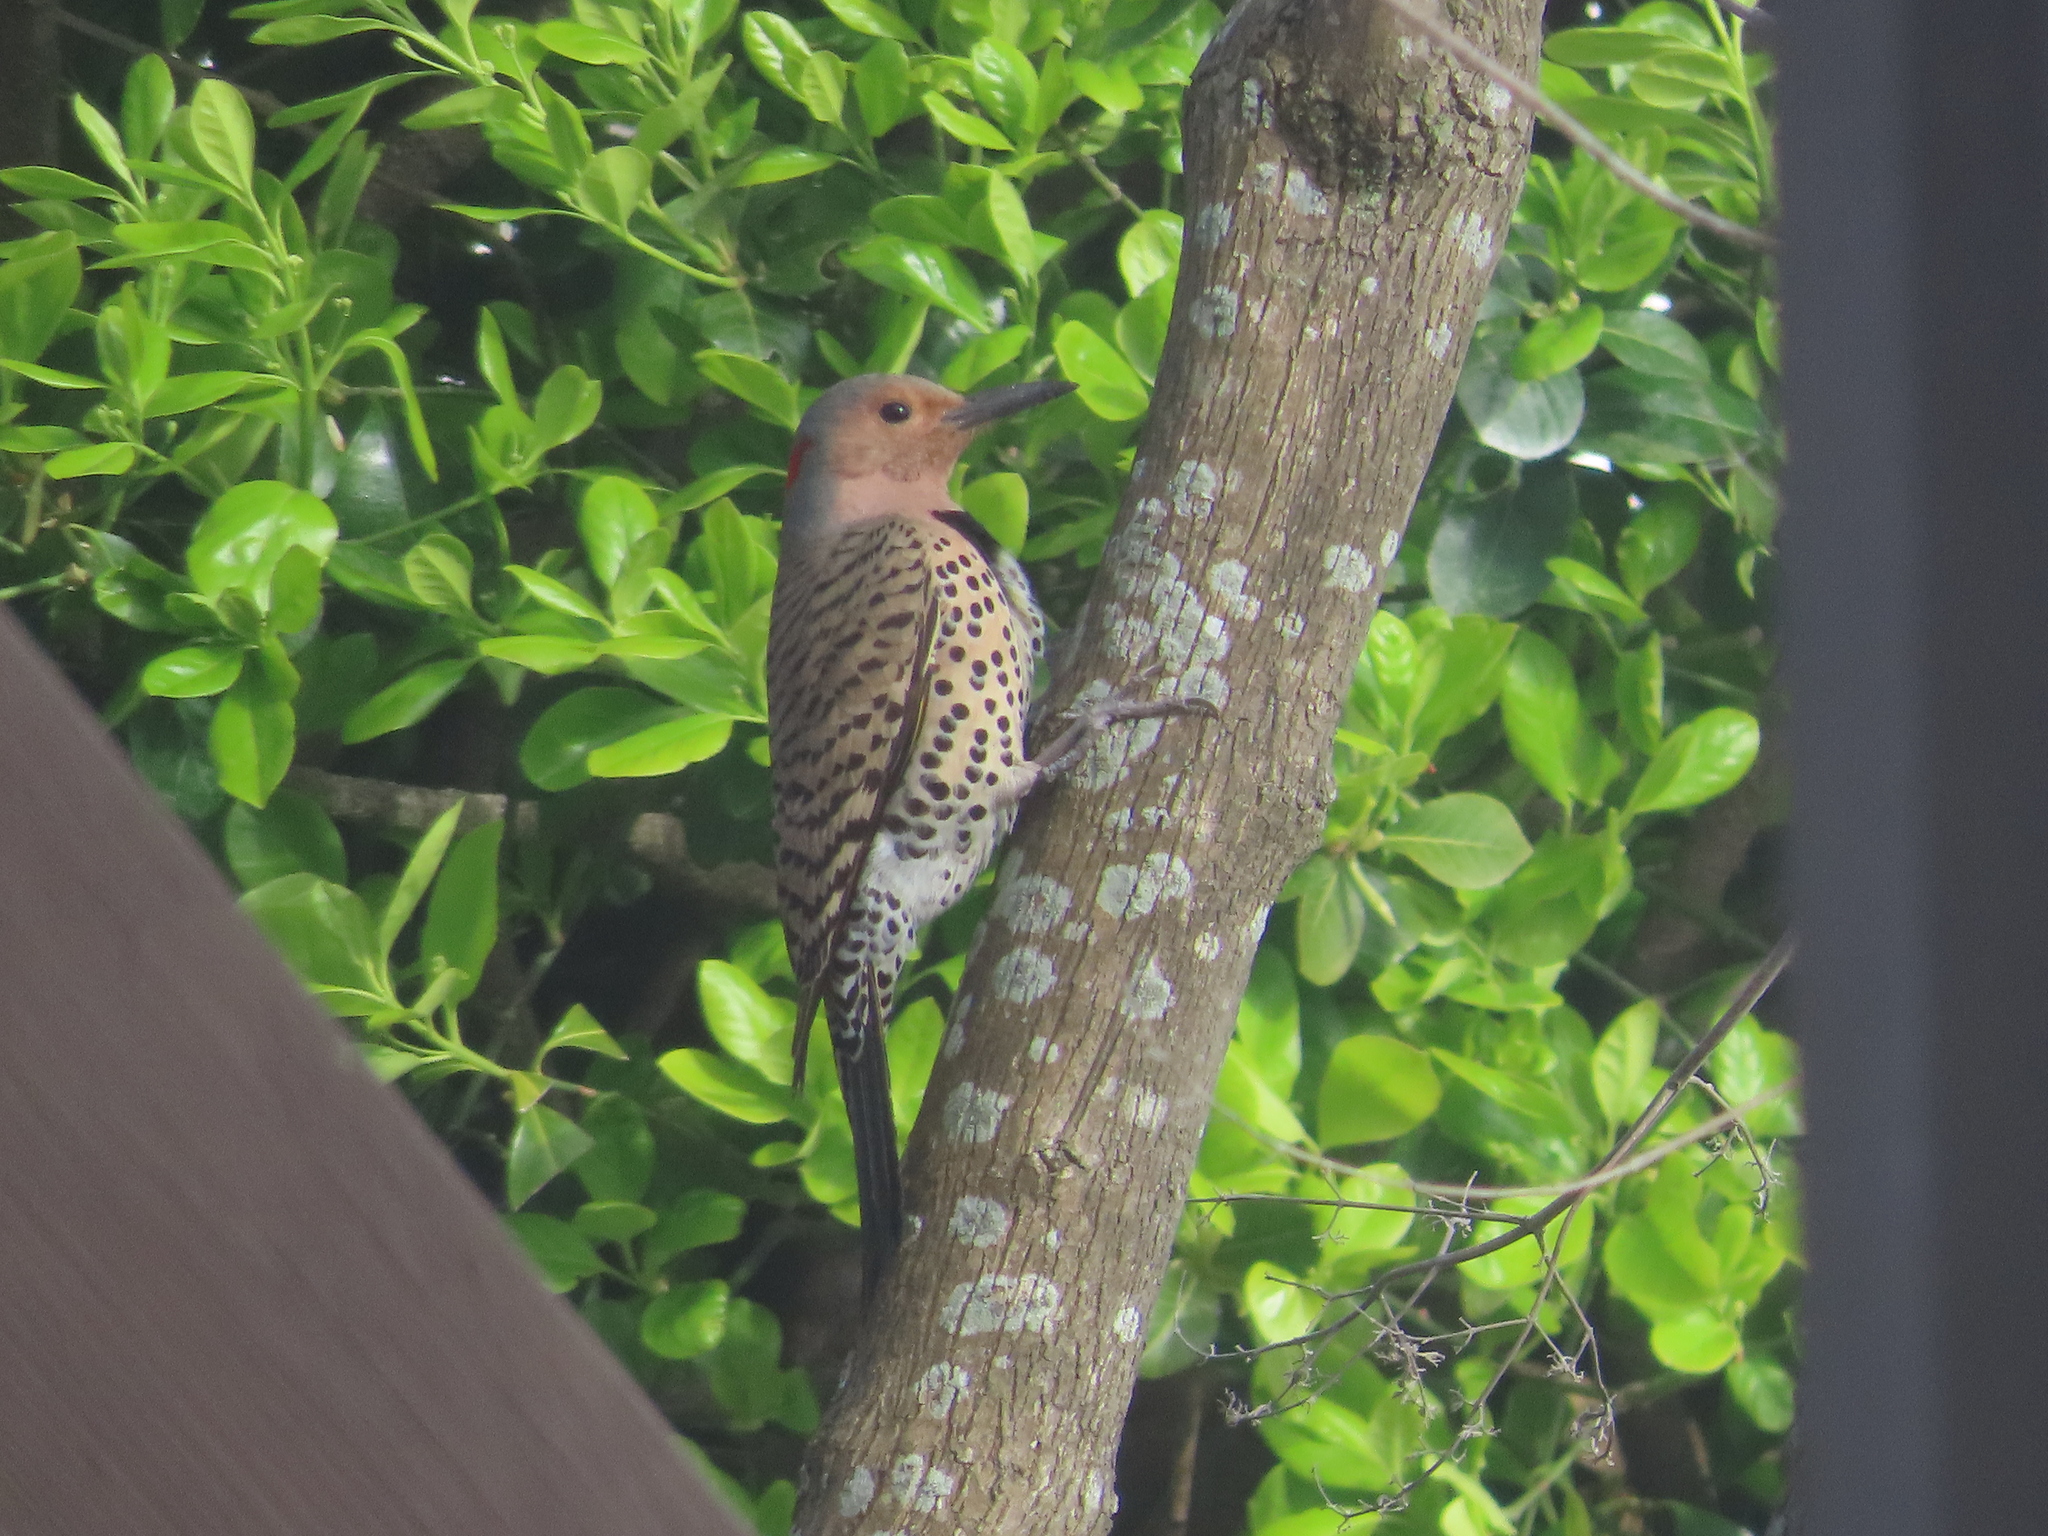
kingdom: Animalia
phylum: Chordata
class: Aves
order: Piciformes
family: Picidae
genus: Colaptes
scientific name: Colaptes auratus
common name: Northern flicker
